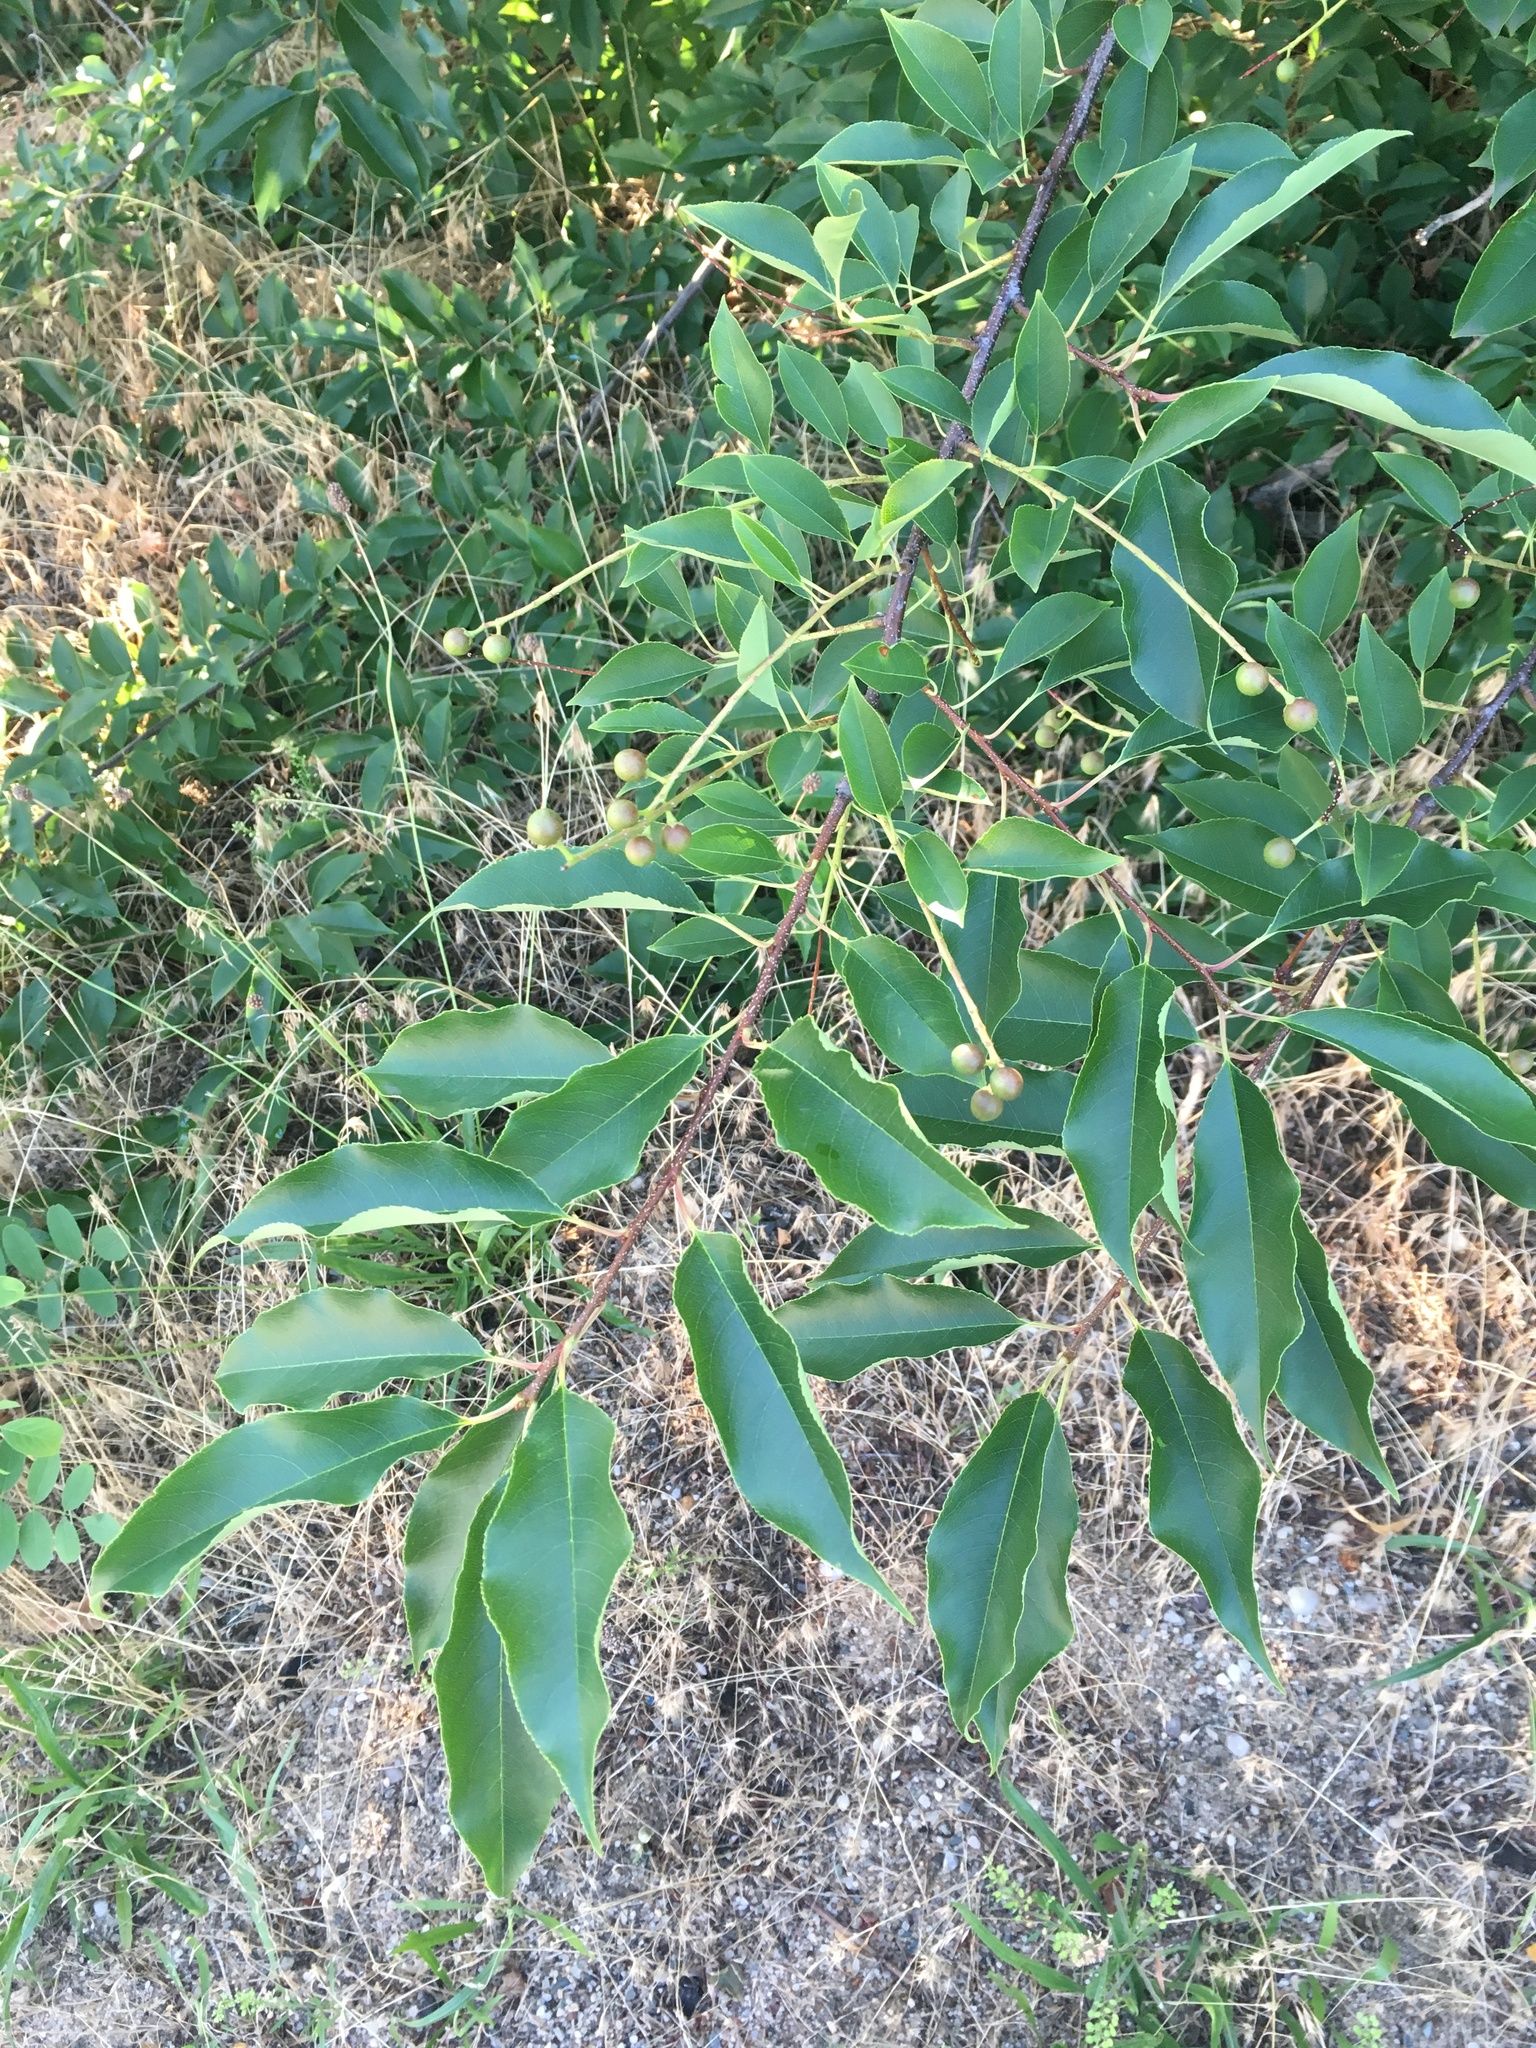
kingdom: Plantae
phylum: Tracheophyta
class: Magnoliopsida
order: Rosales
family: Rosaceae
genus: Prunus
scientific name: Prunus serotina
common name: Black cherry
